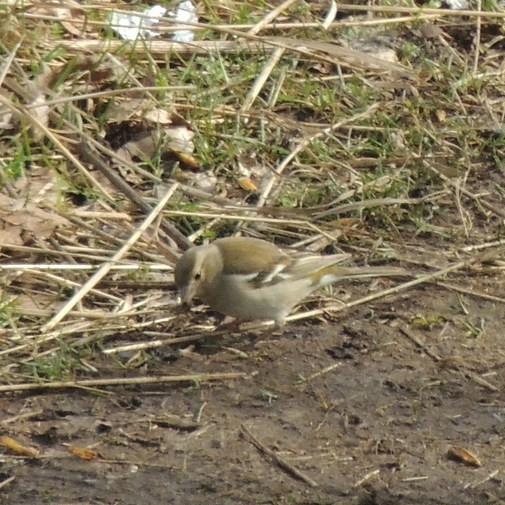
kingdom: Animalia
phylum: Chordata
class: Aves
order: Passeriformes
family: Fringillidae
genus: Fringilla
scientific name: Fringilla coelebs
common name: Common chaffinch
